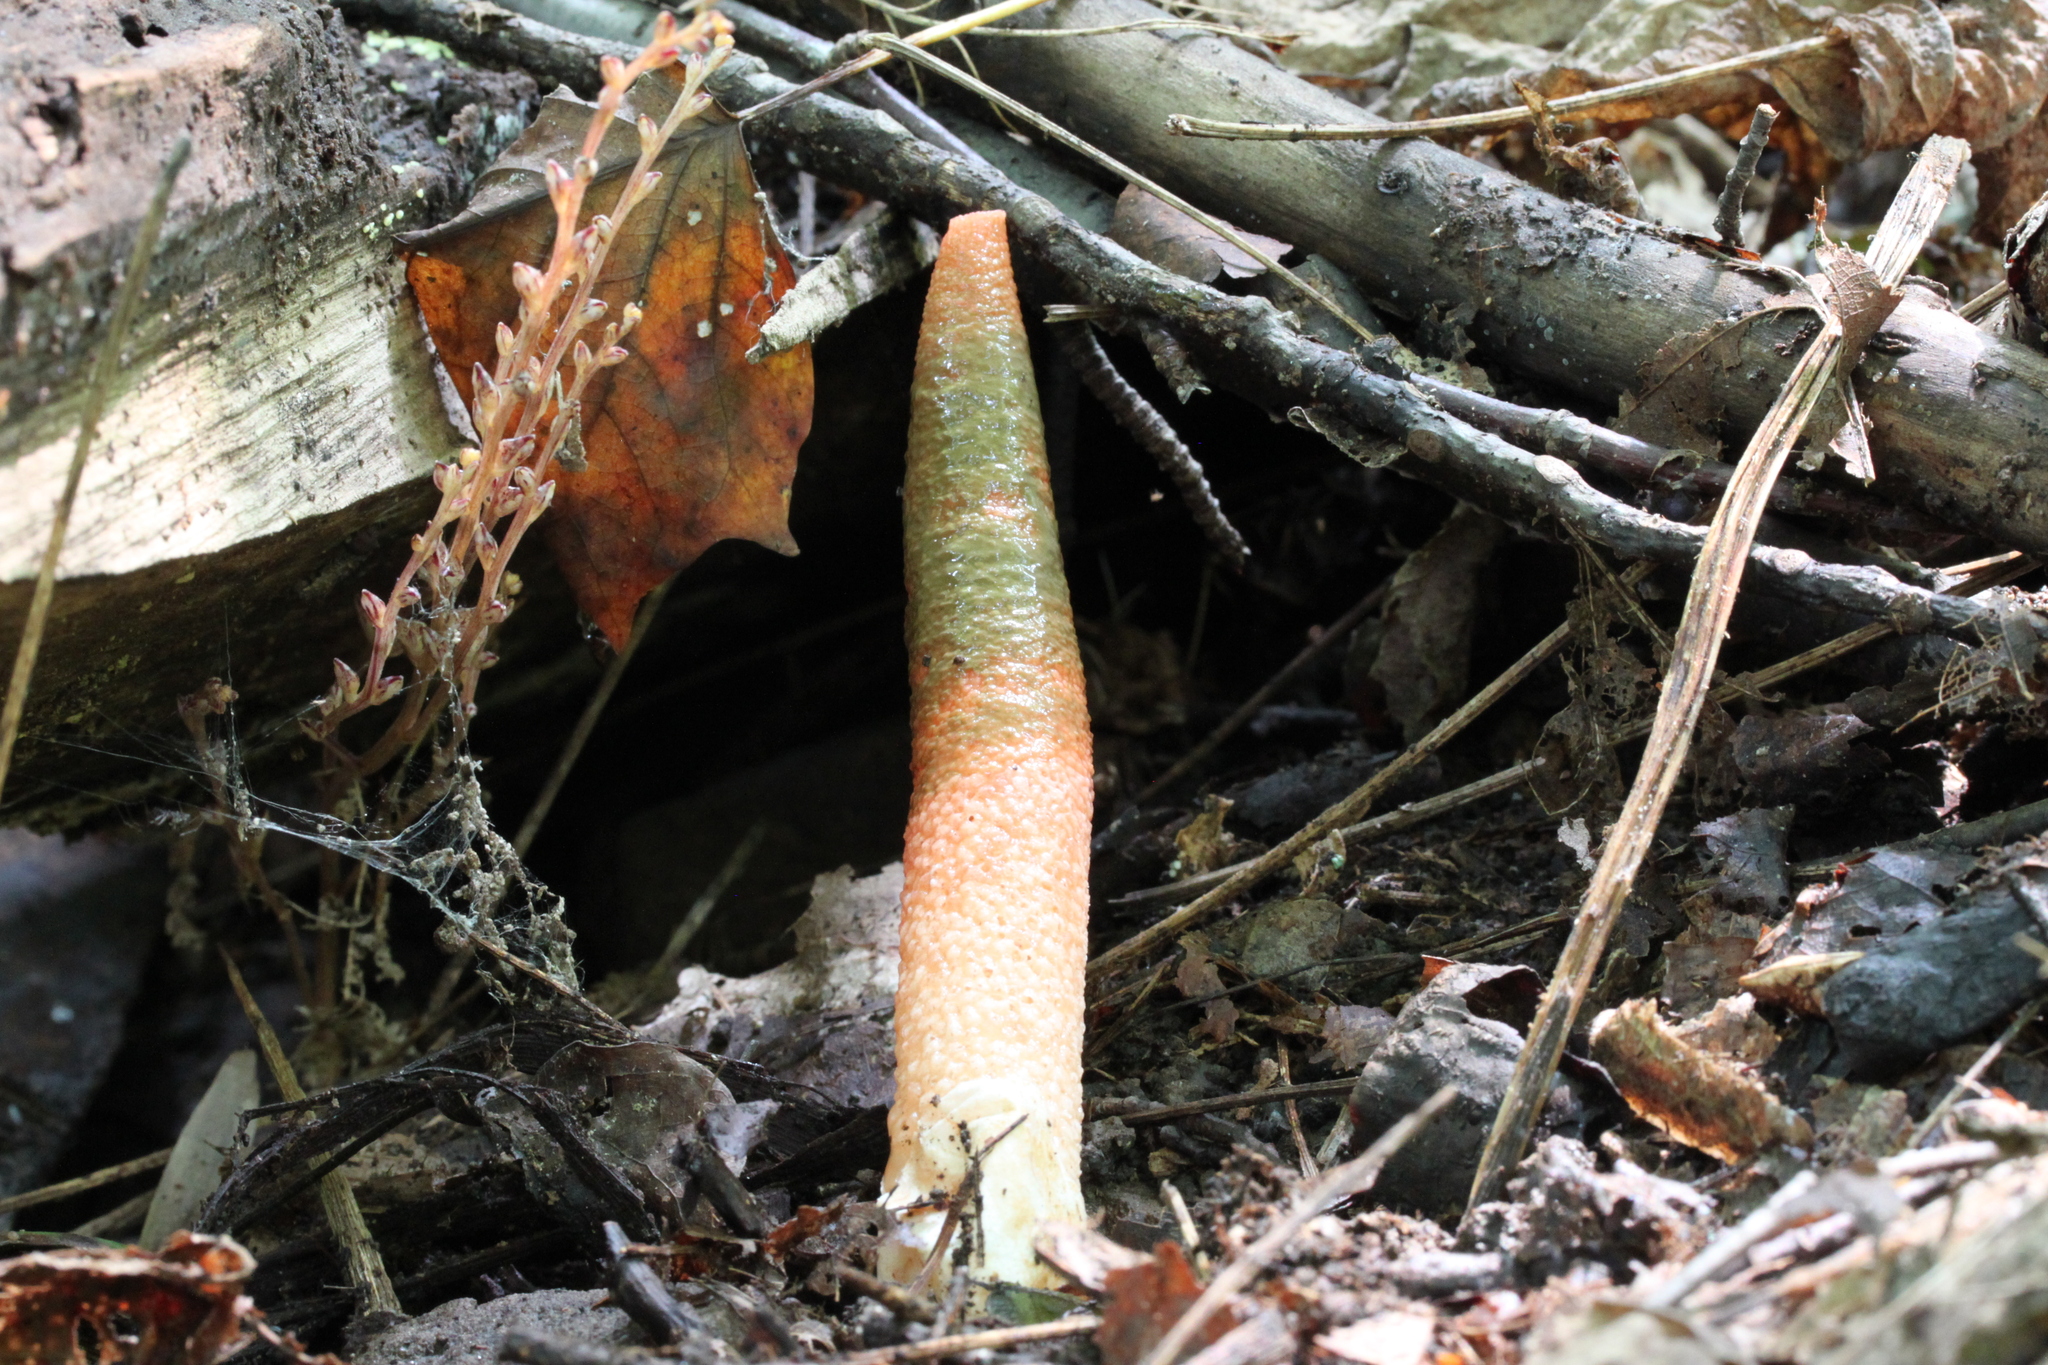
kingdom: Fungi
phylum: Basidiomycota
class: Agaricomycetes
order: Phallales
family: Phallaceae
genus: Mutinus
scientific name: Mutinus elegans
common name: Devil's dipstick
